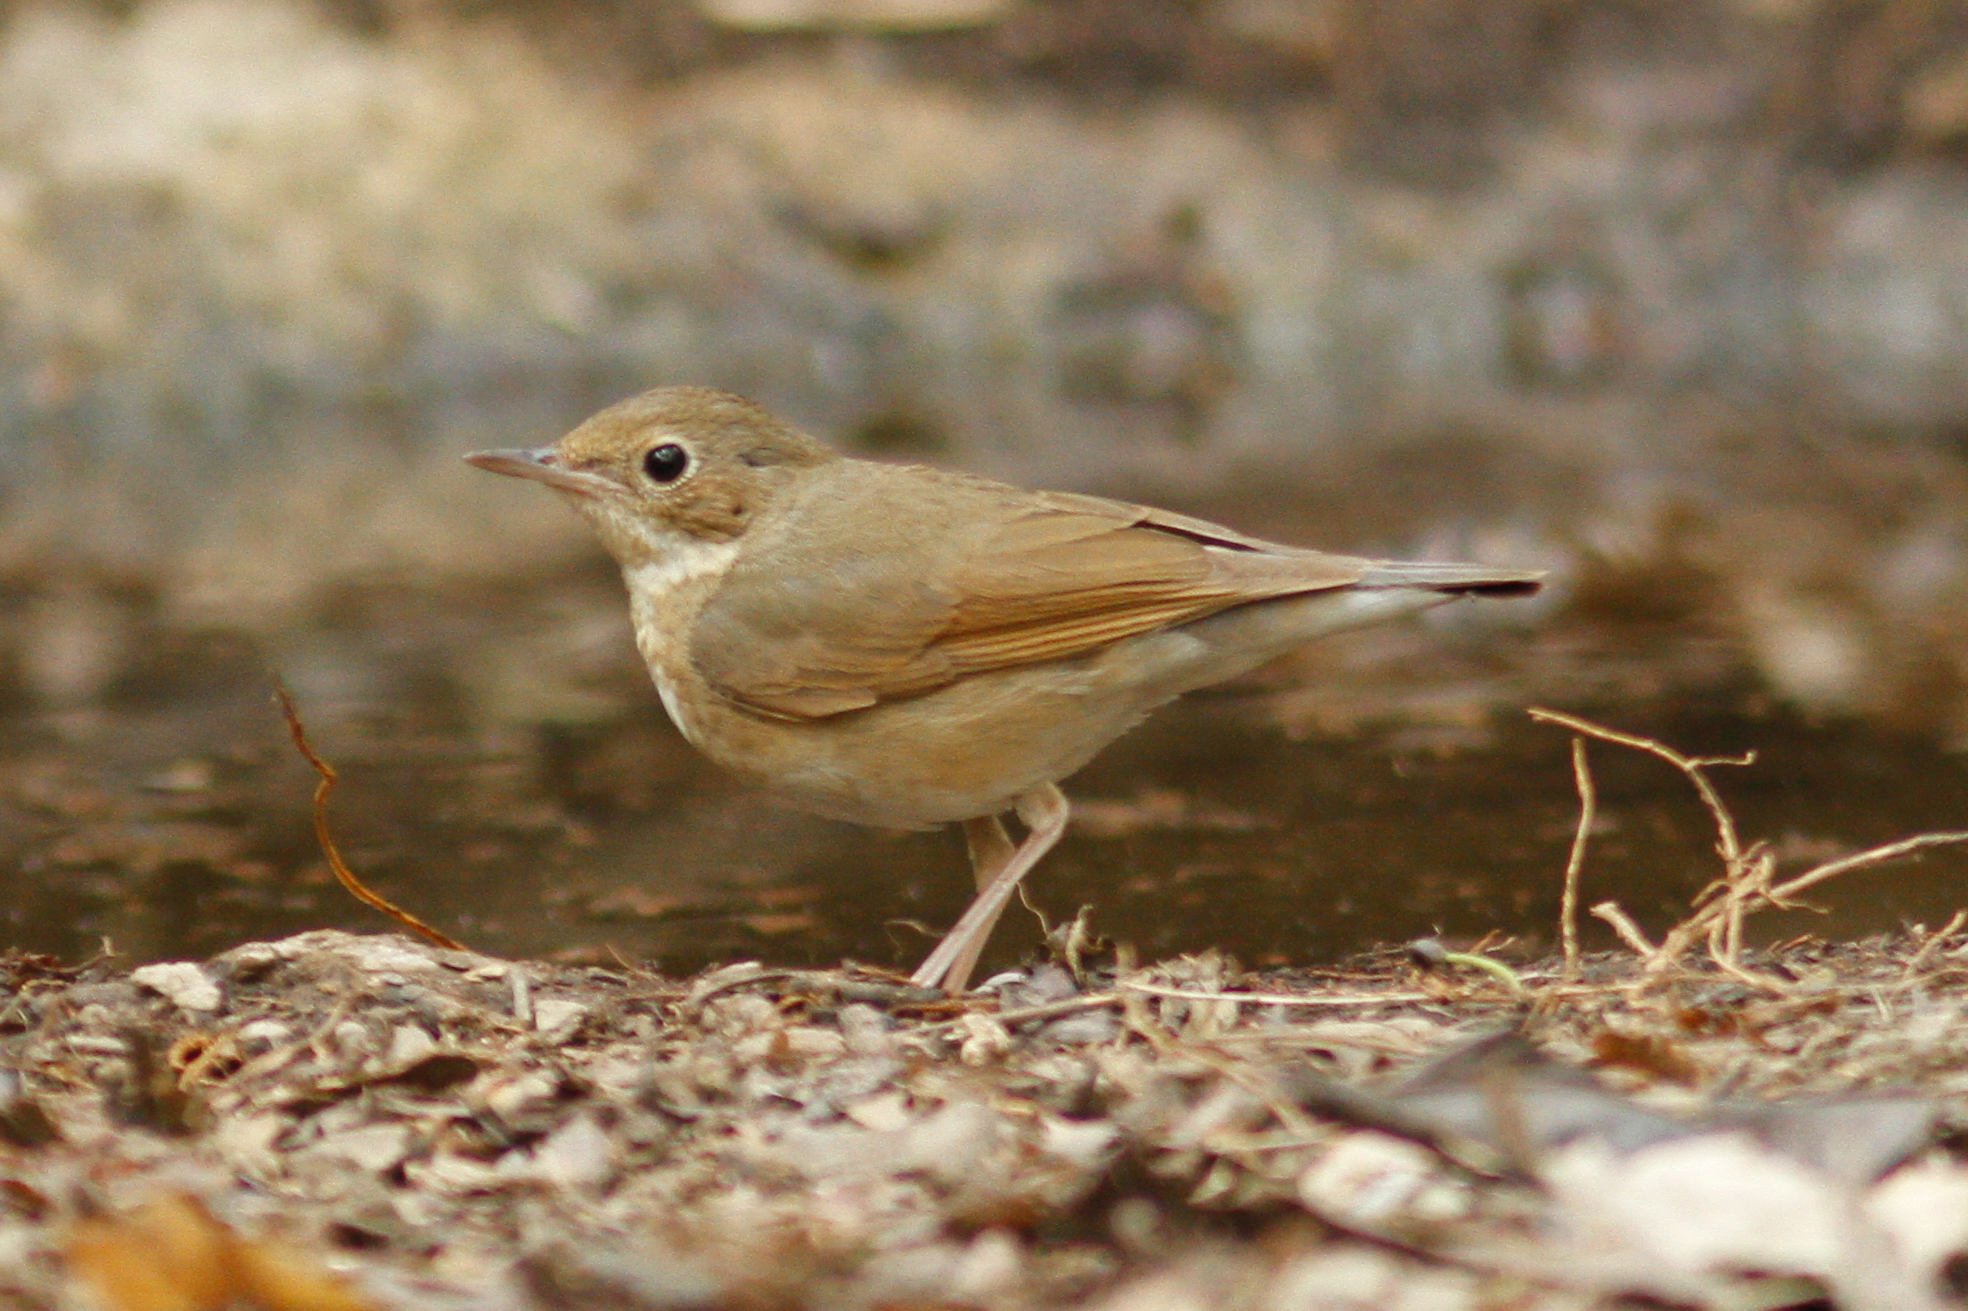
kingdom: Animalia
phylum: Chordata
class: Aves
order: Passeriformes
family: Muscicapidae
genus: Luscinia
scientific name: Luscinia cyane
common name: Siberian blue robin
